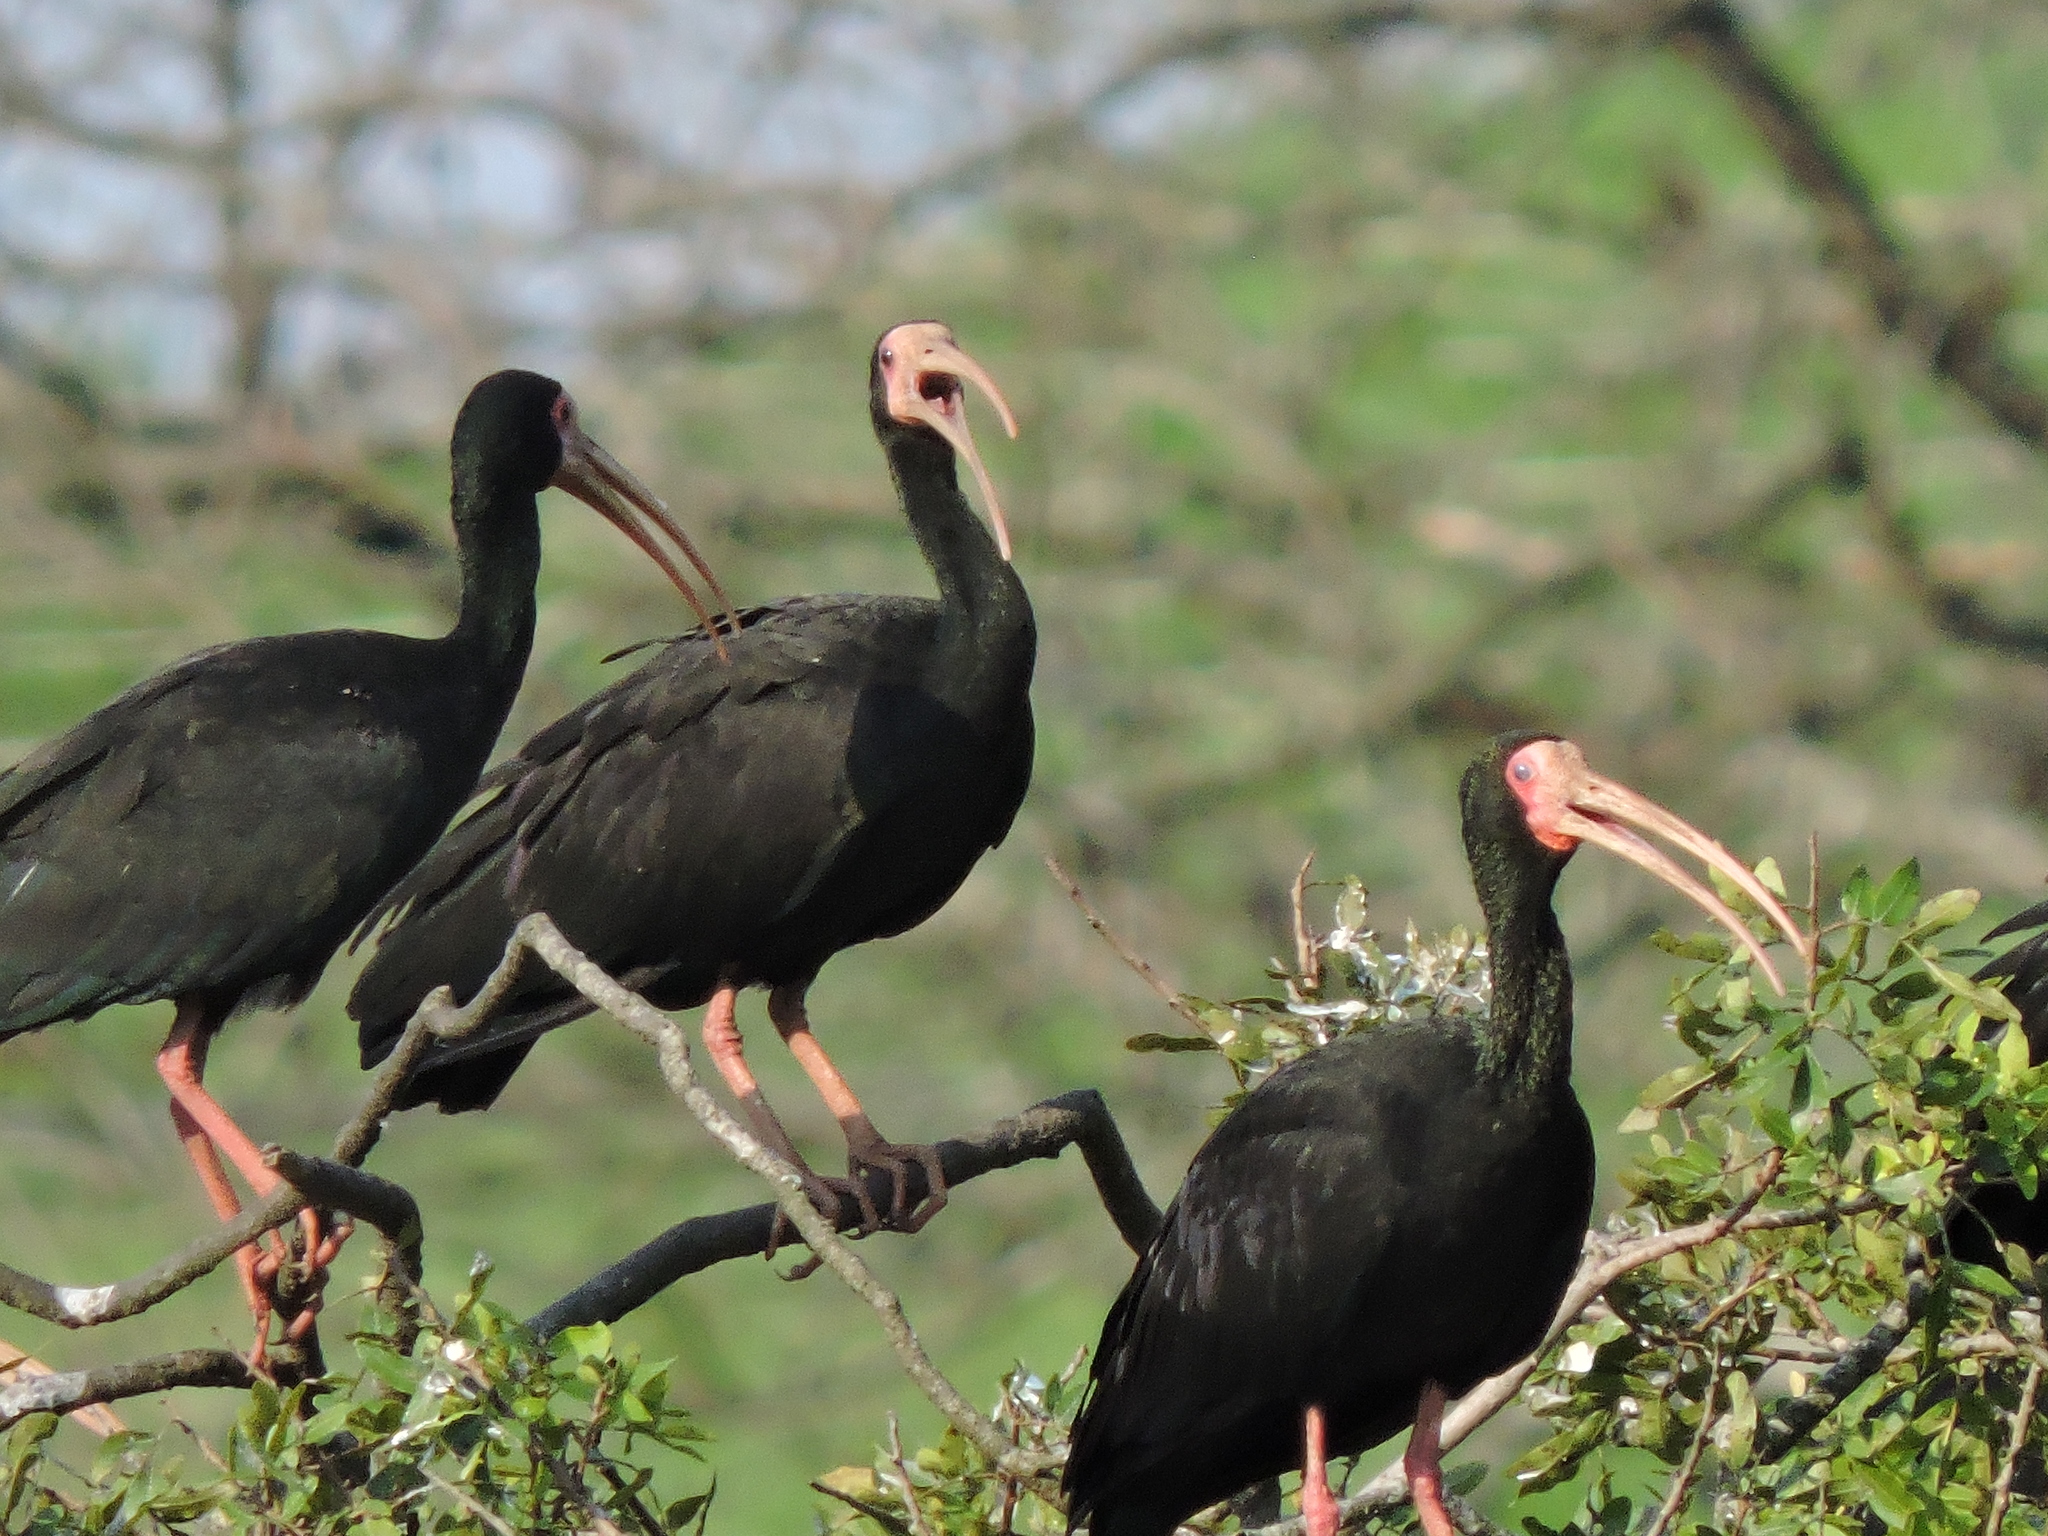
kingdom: Animalia
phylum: Chordata
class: Aves
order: Pelecaniformes
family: Threskiornithidae
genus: Phimosus
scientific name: Phimosus infuscatus
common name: Bare-faced ibis
